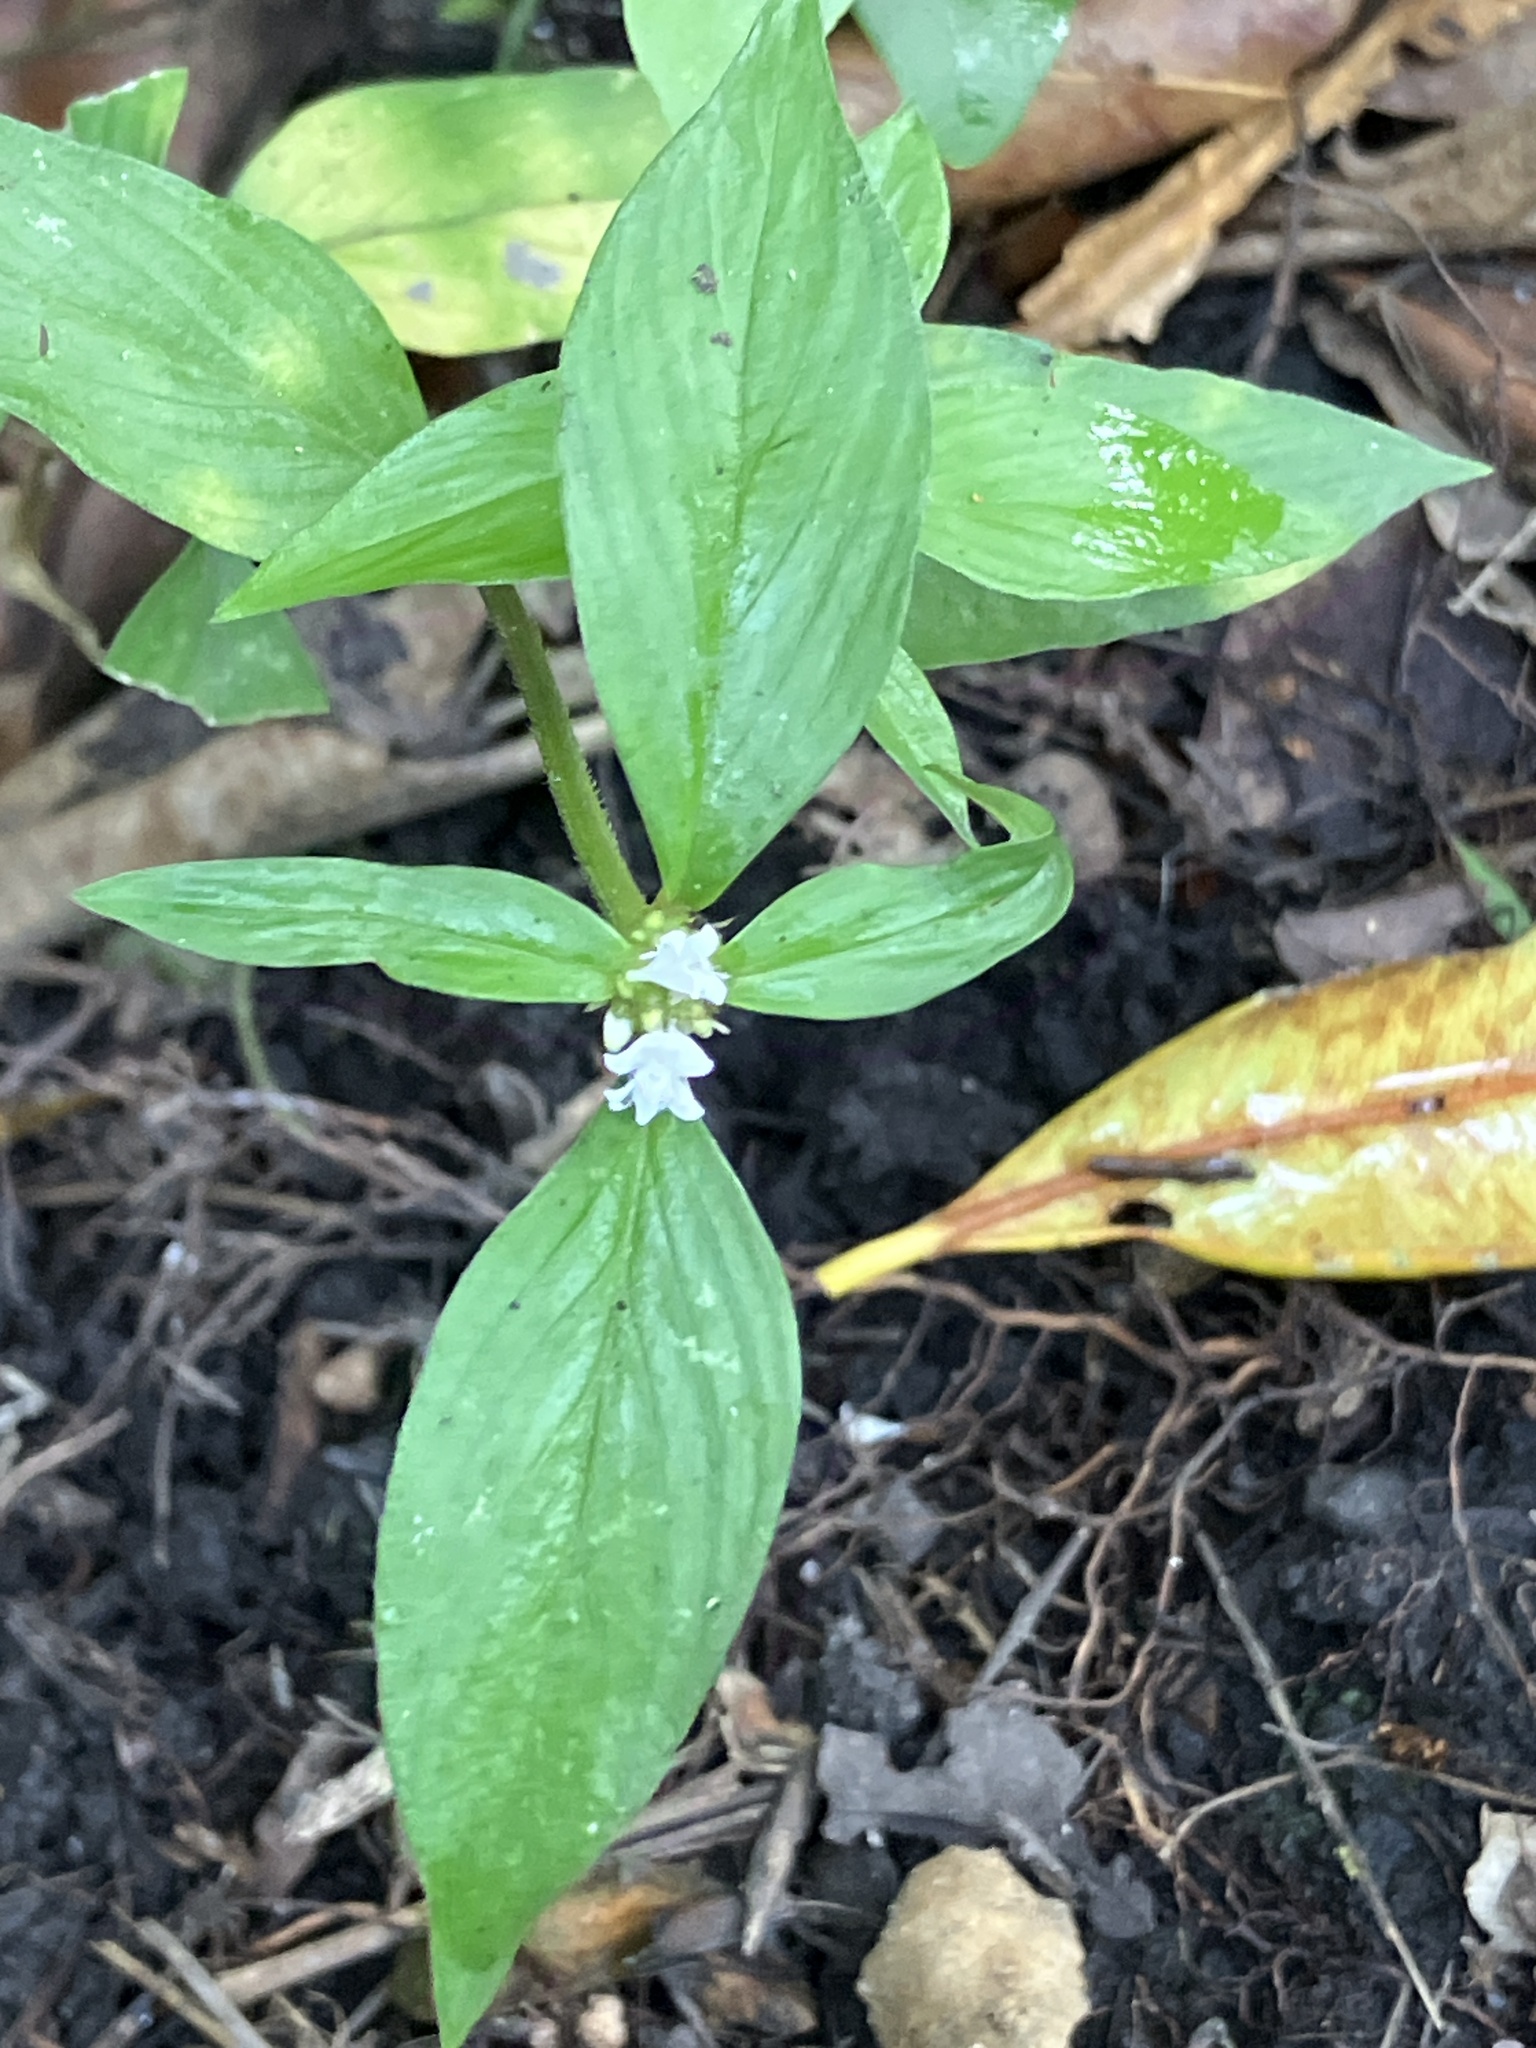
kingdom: Plantae
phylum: Tracheophyta
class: Magnoliopsida
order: Gentianales
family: Rubiaceae
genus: Spermacoce
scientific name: Spermacoce remota
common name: Woodland false buttonweed
